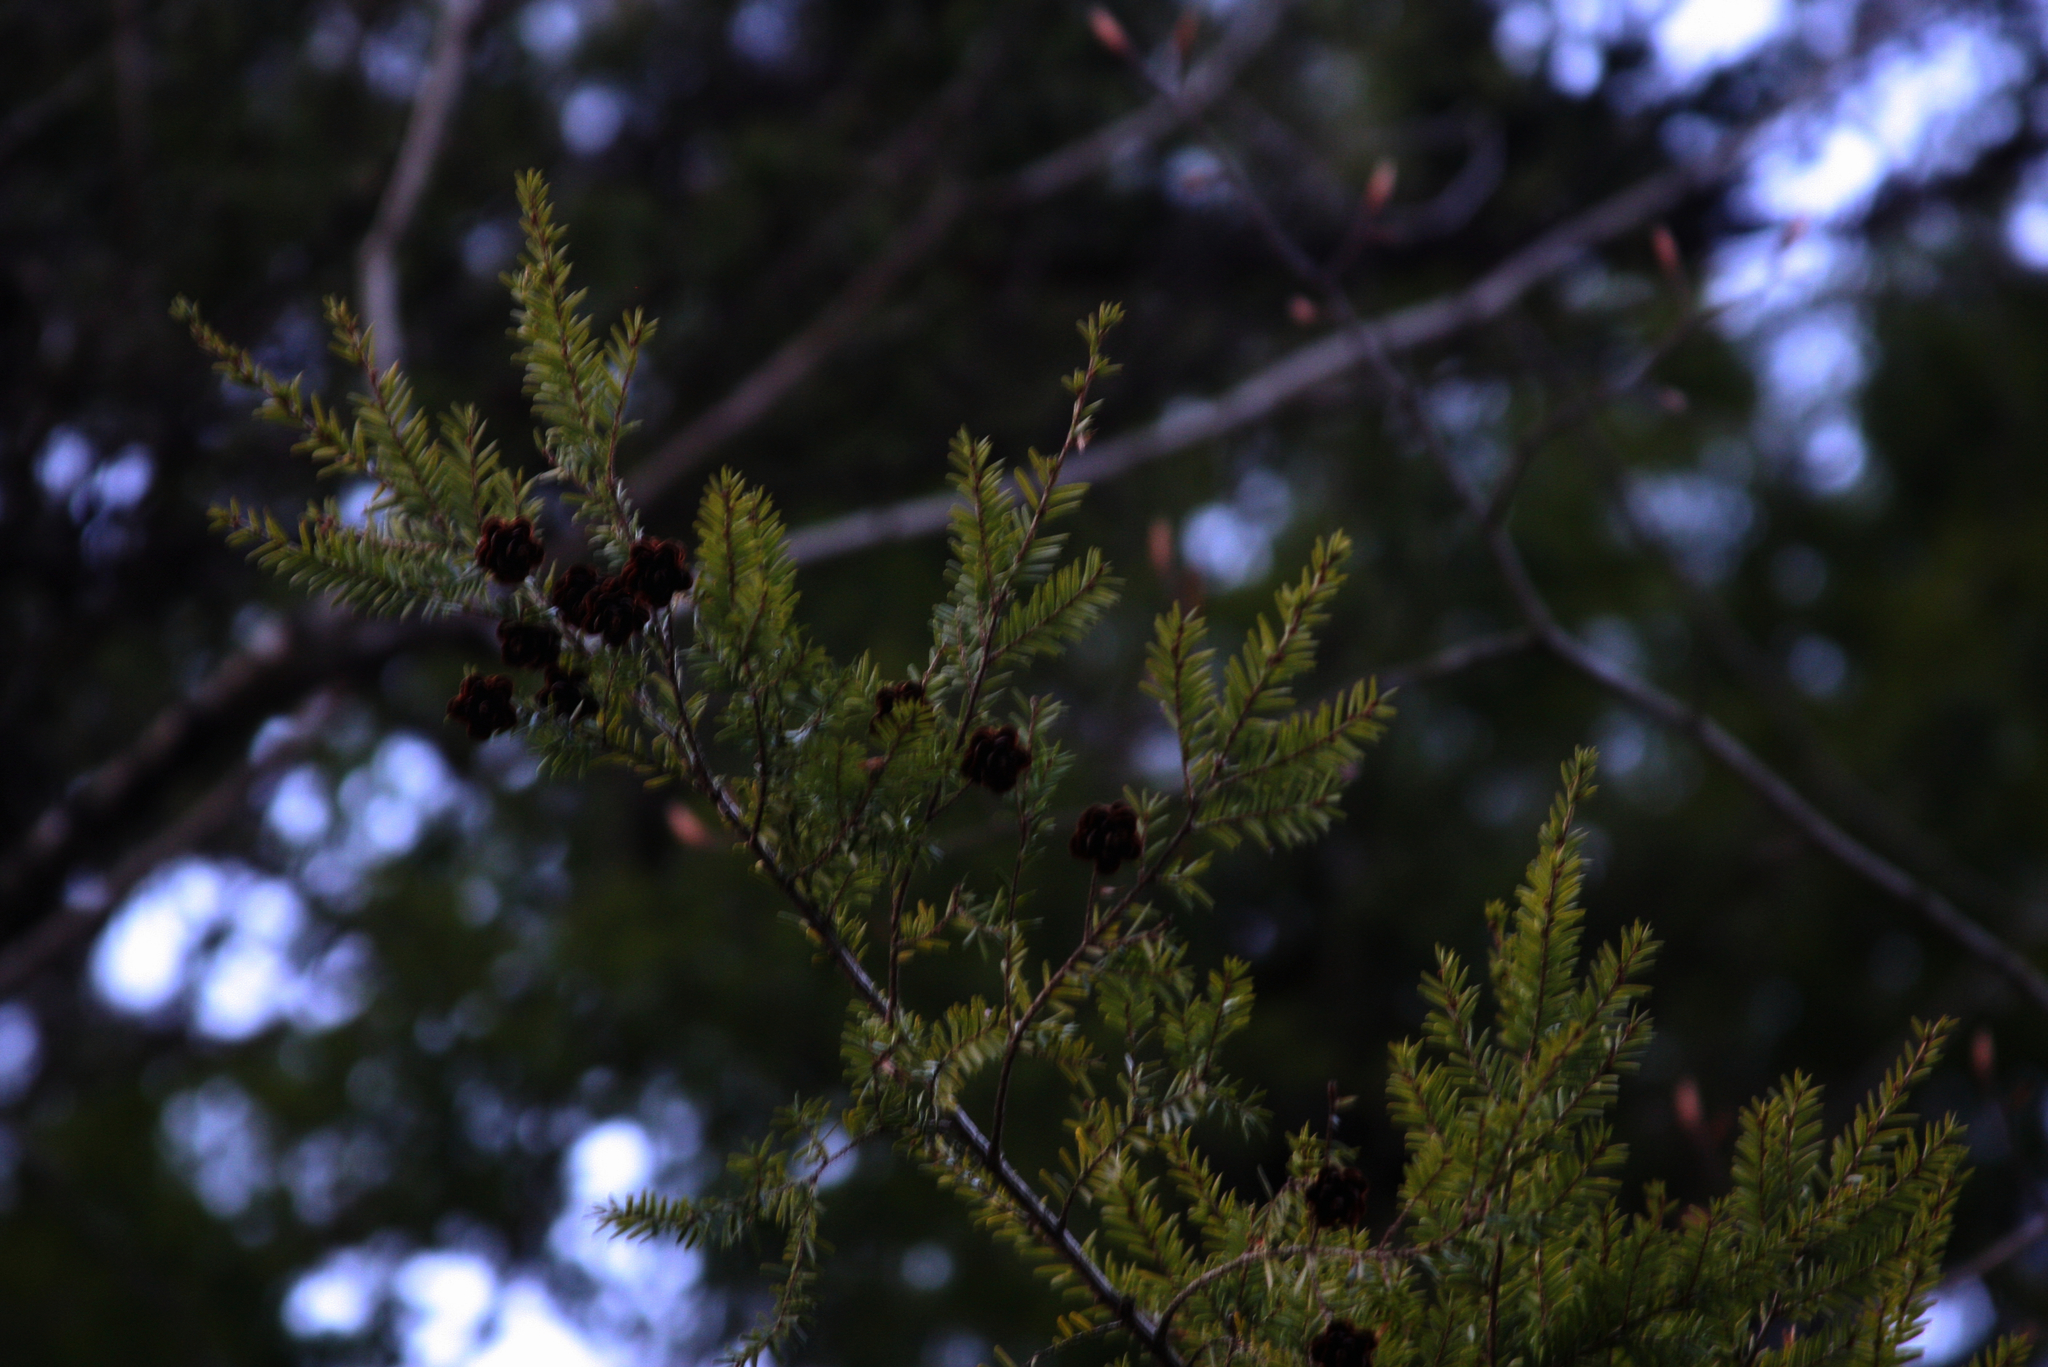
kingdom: Plantae
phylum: Tracheophyta
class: Pinopsida
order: Pinales
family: Pinaceae
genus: Tsuga
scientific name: Tsuga canadensis
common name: Eastern hemlock
